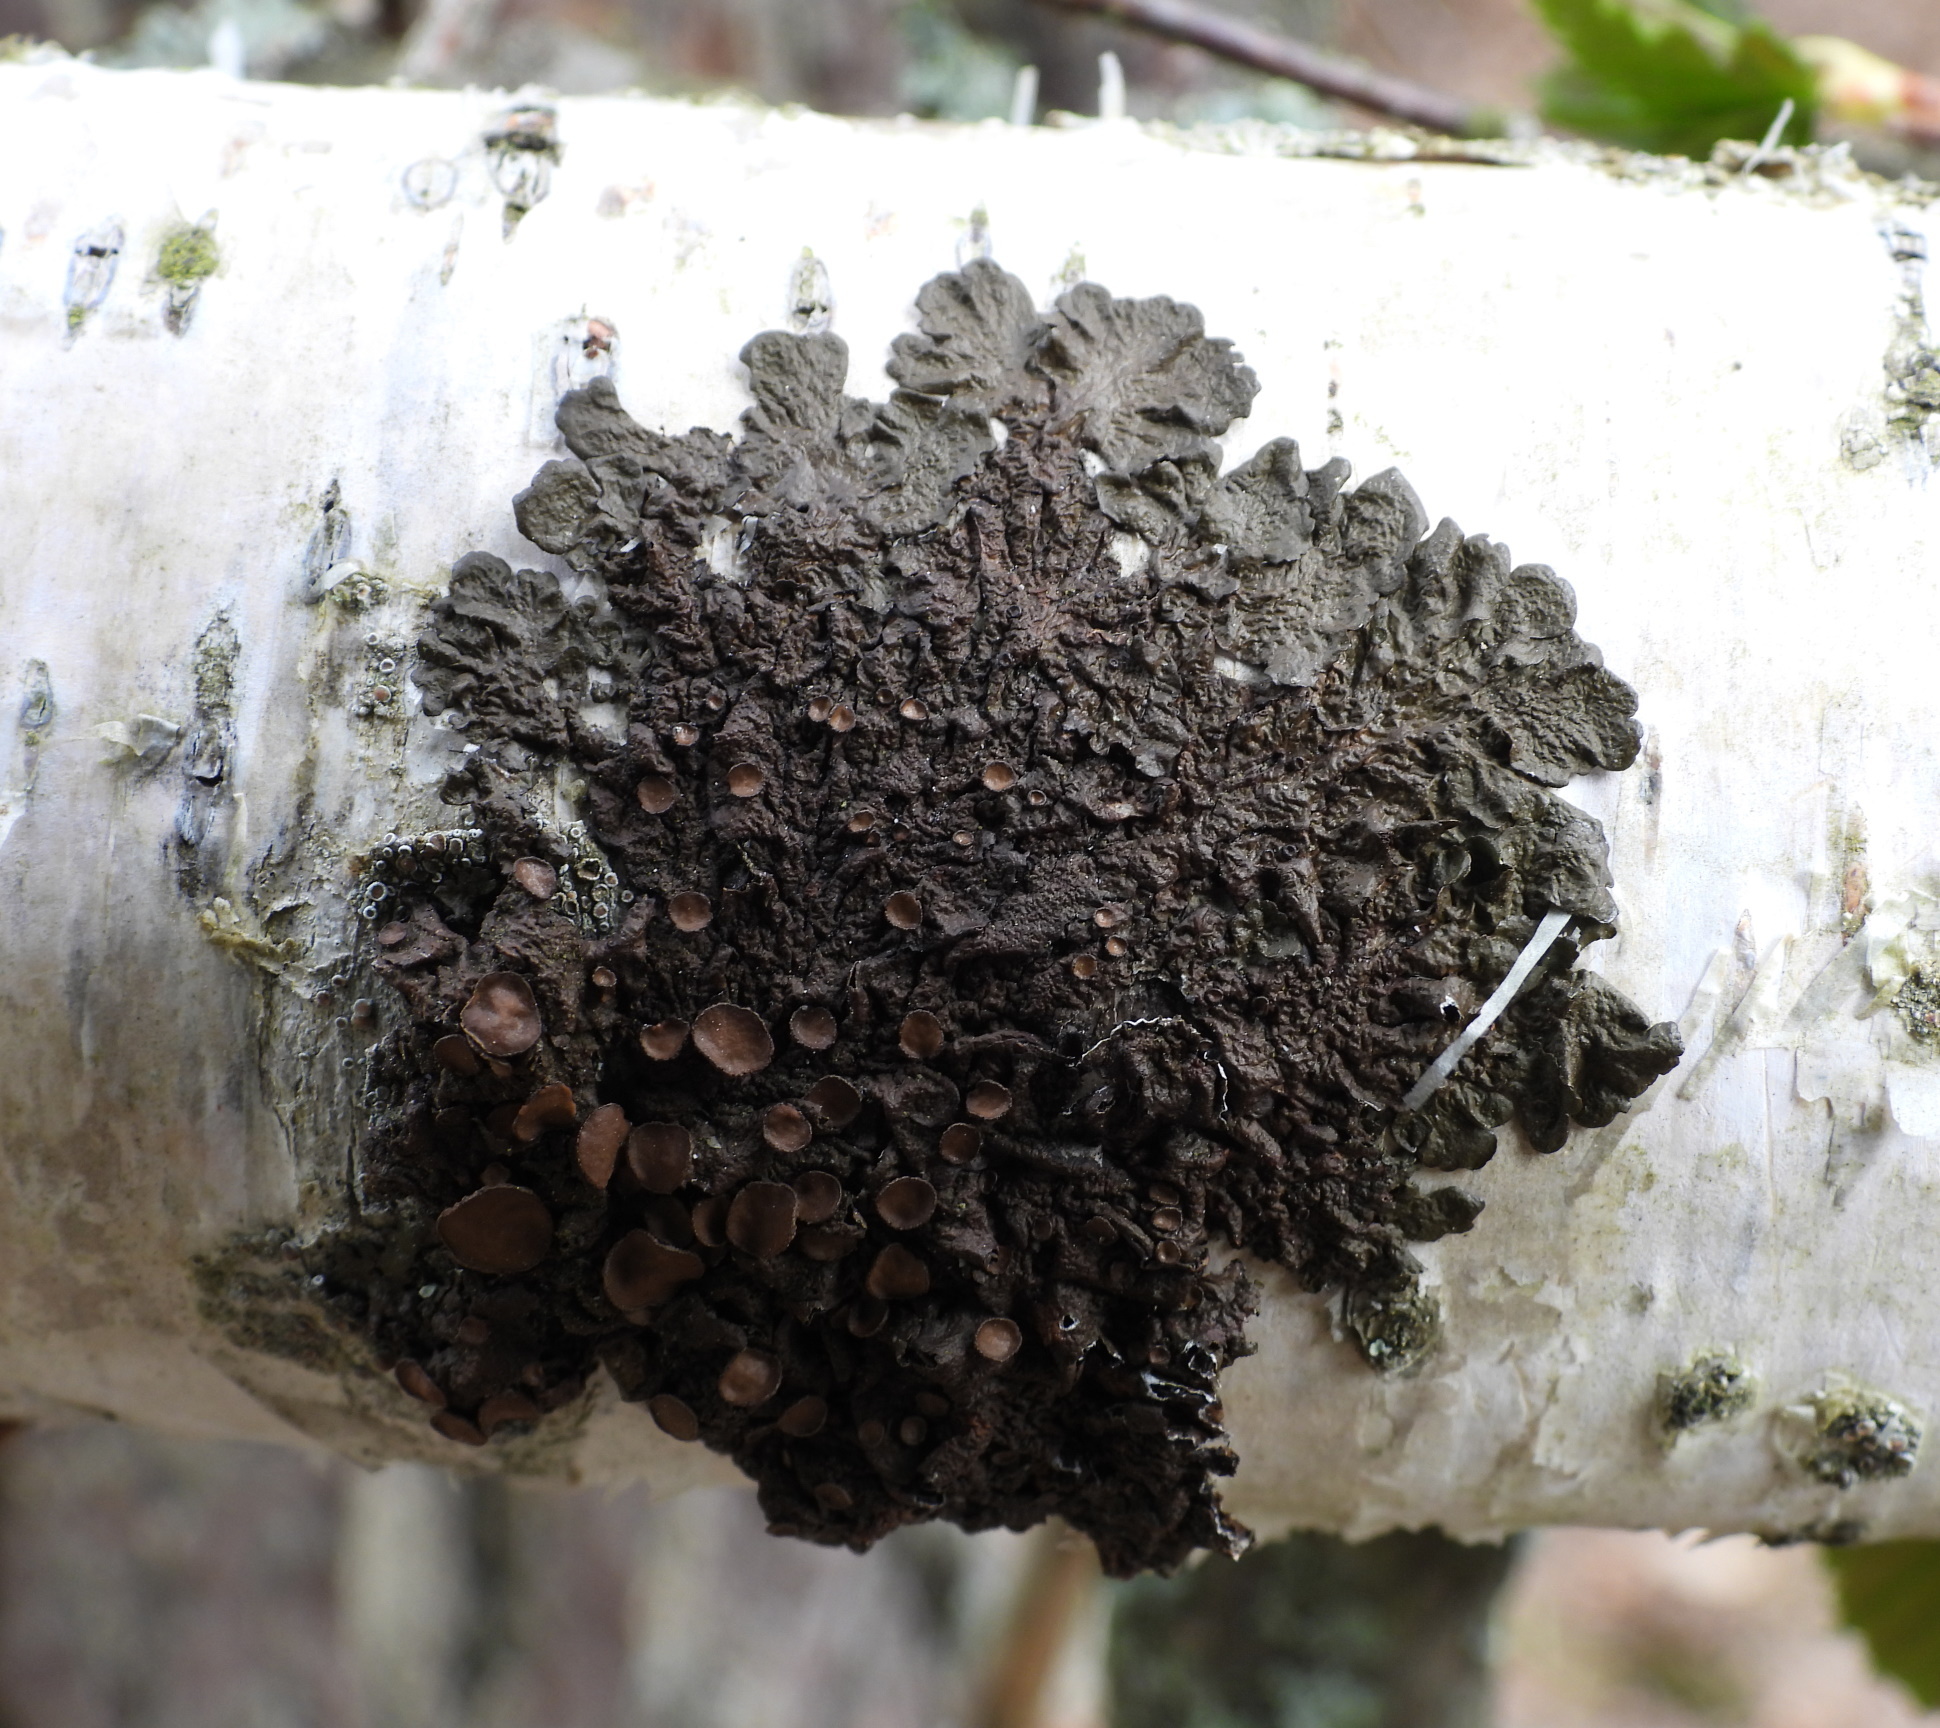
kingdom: Fungi
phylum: Ascomycota
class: Lecanoromycetes
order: Lecanorales
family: Parmeliaceae
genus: Melanohalea
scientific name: Melanohalea olivacea
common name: Spotted camouflage lichen
